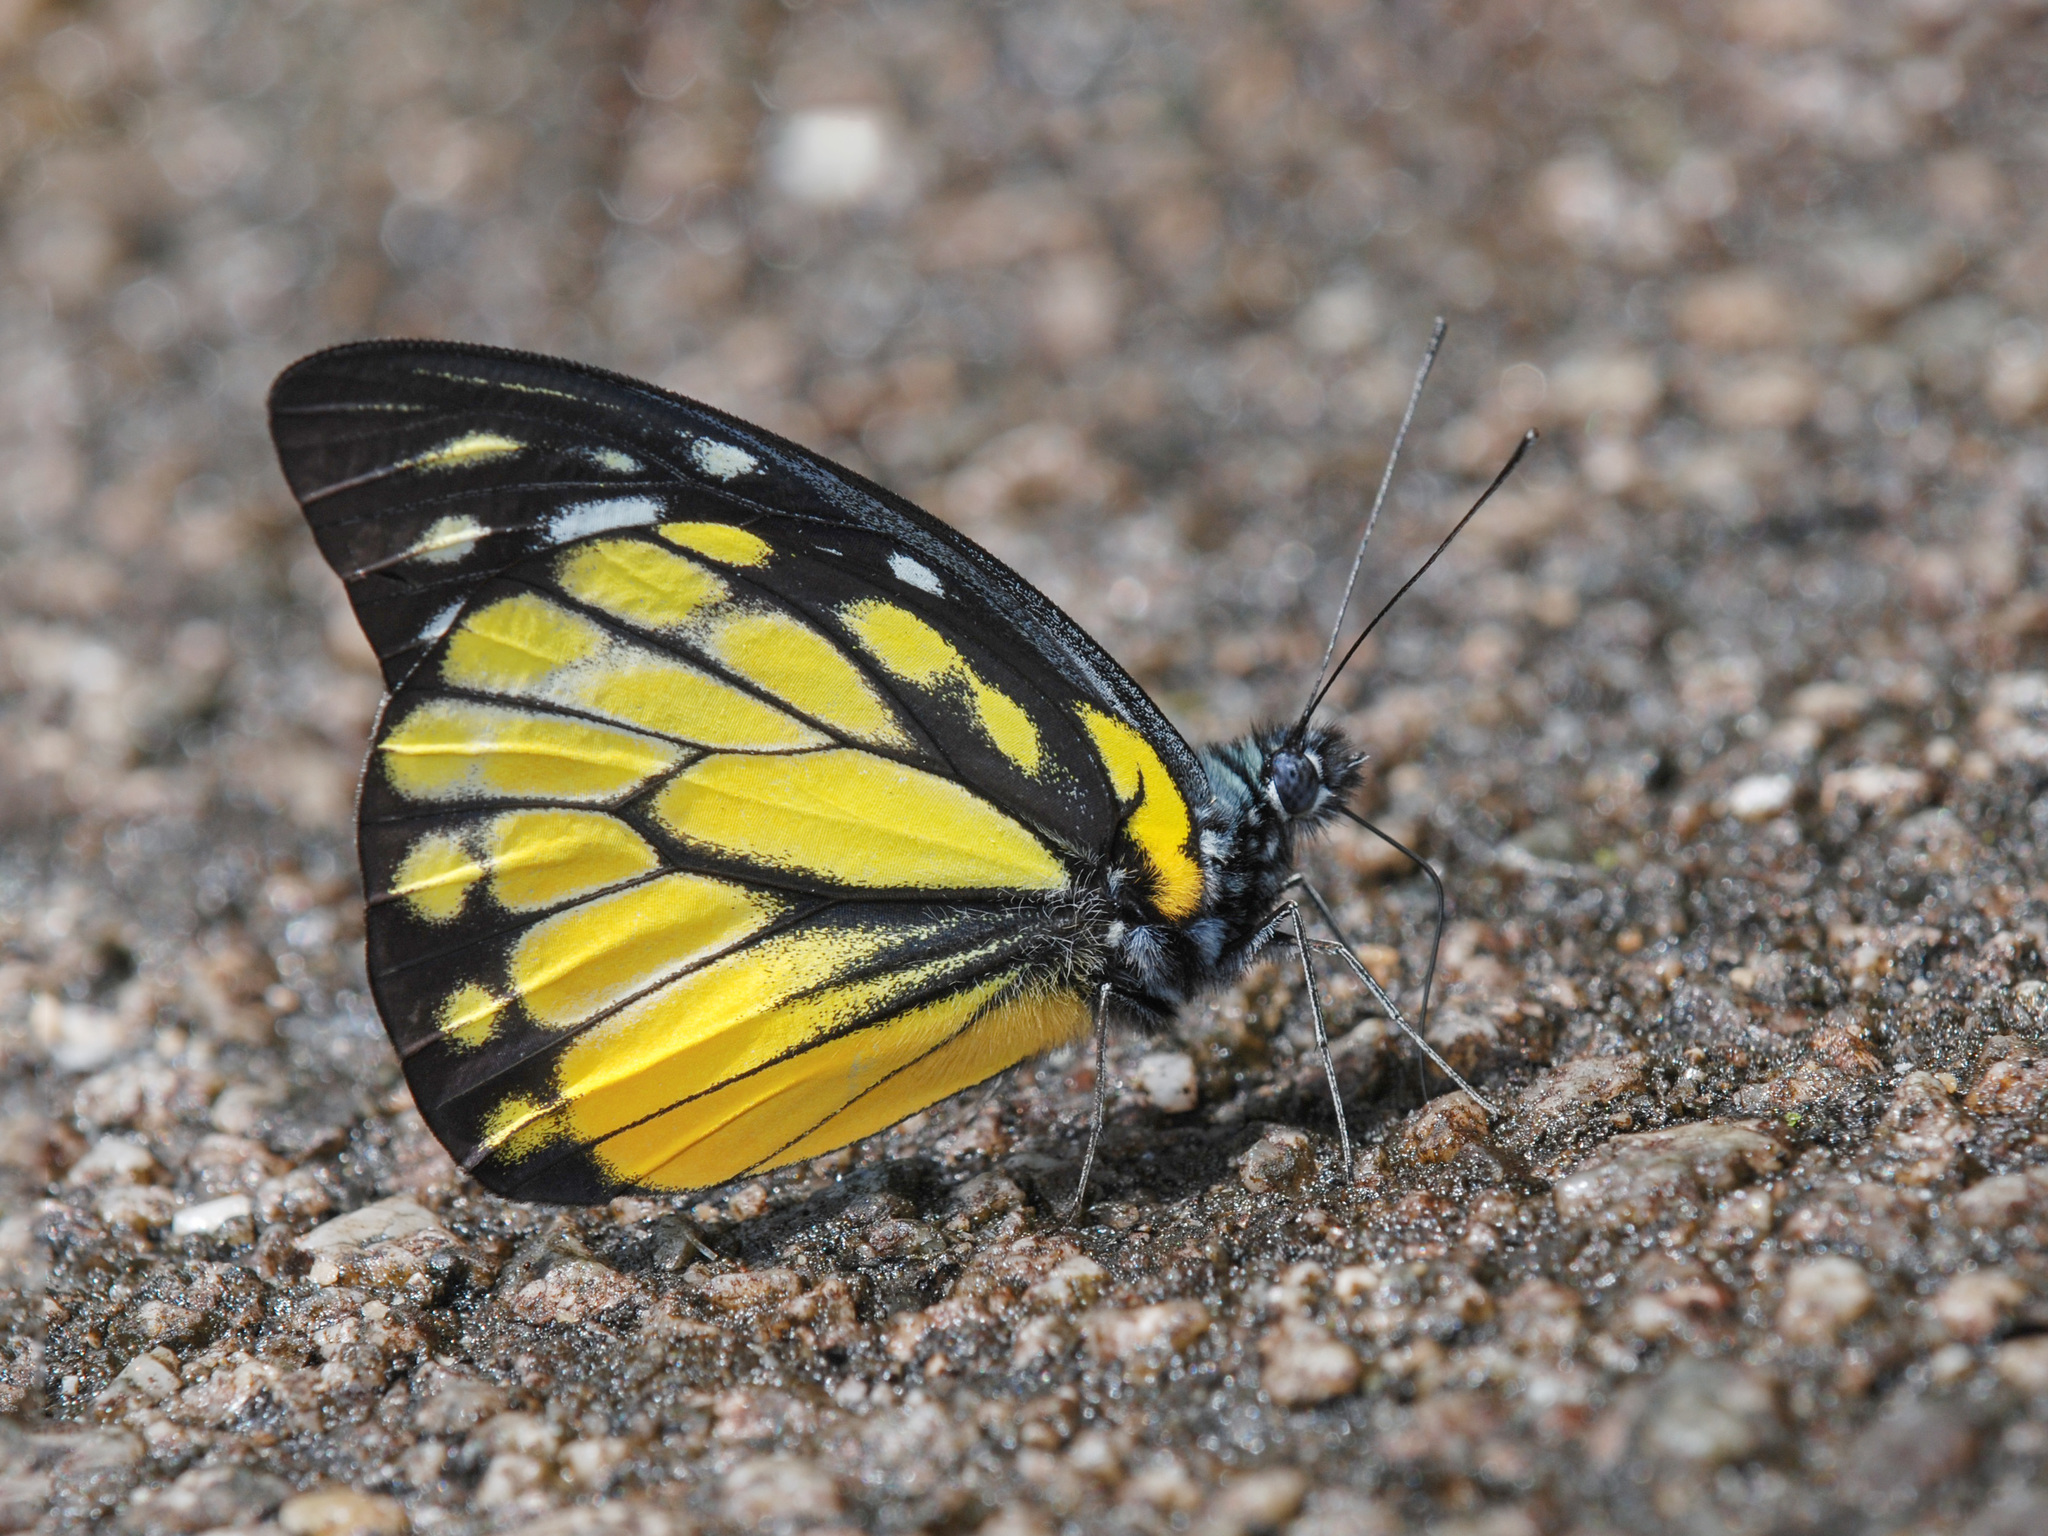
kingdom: Animalia
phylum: Arthropoda
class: Insecta
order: Lepidoptera
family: Pieridae
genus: Prioneris
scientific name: Prioneris thestylis
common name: Spotted sawtooth
